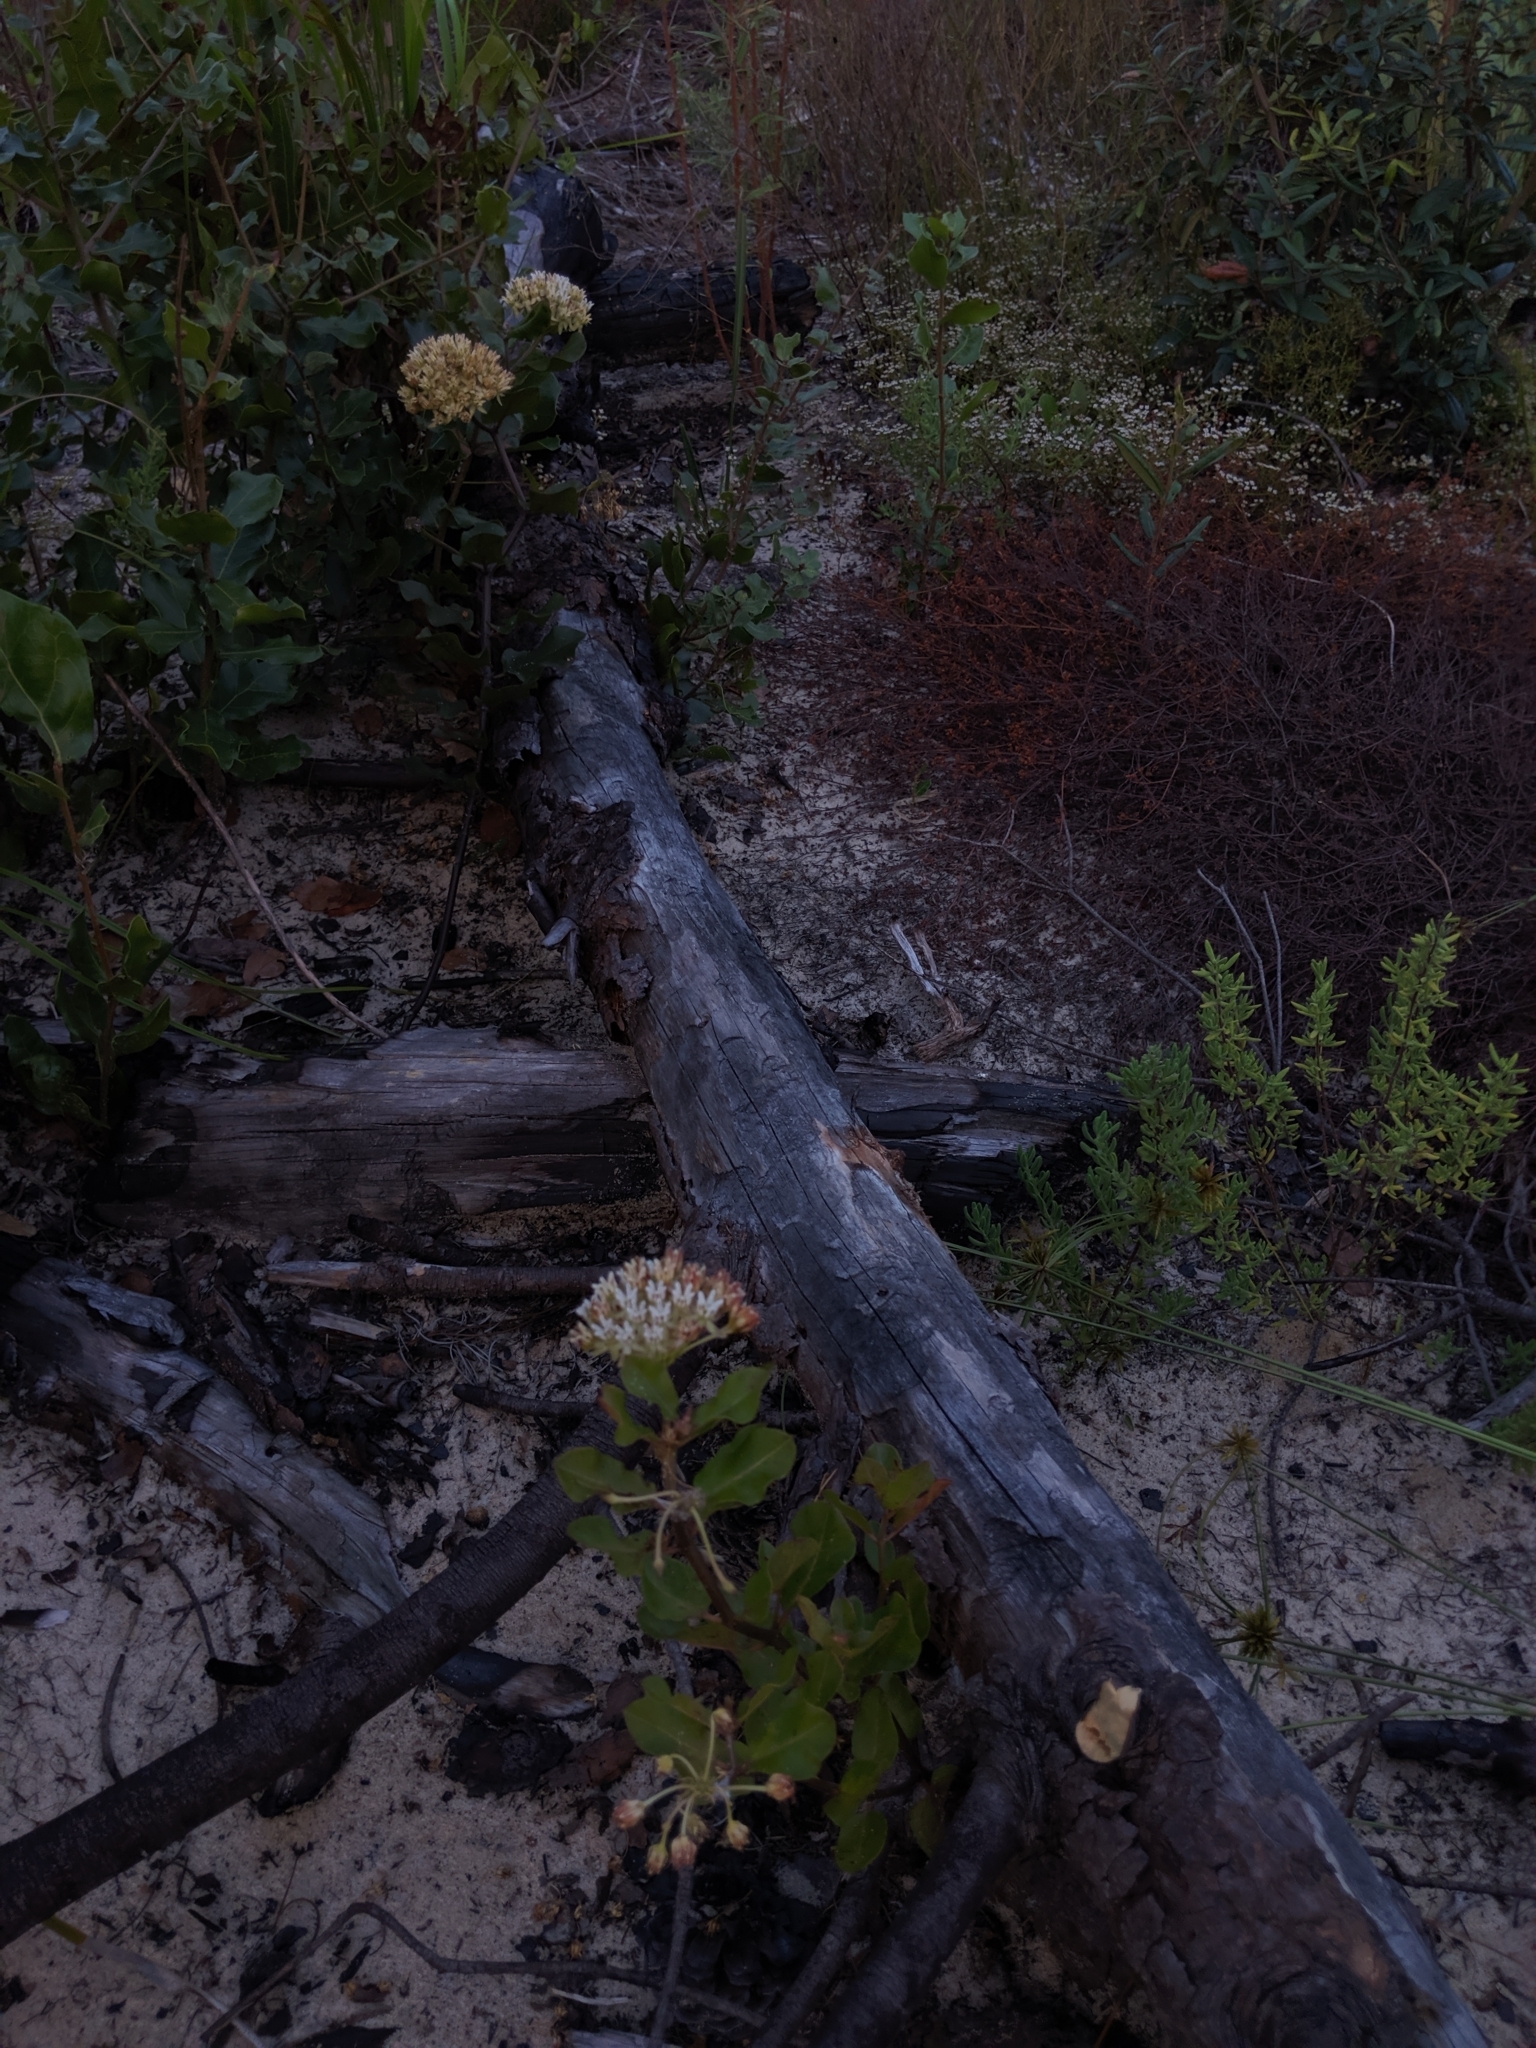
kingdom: Plantae
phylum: Tracheophyta
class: Magnoliopsida
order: Gentianales
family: Apocynaceae
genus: Asclepias
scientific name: Asclepias curtissii
